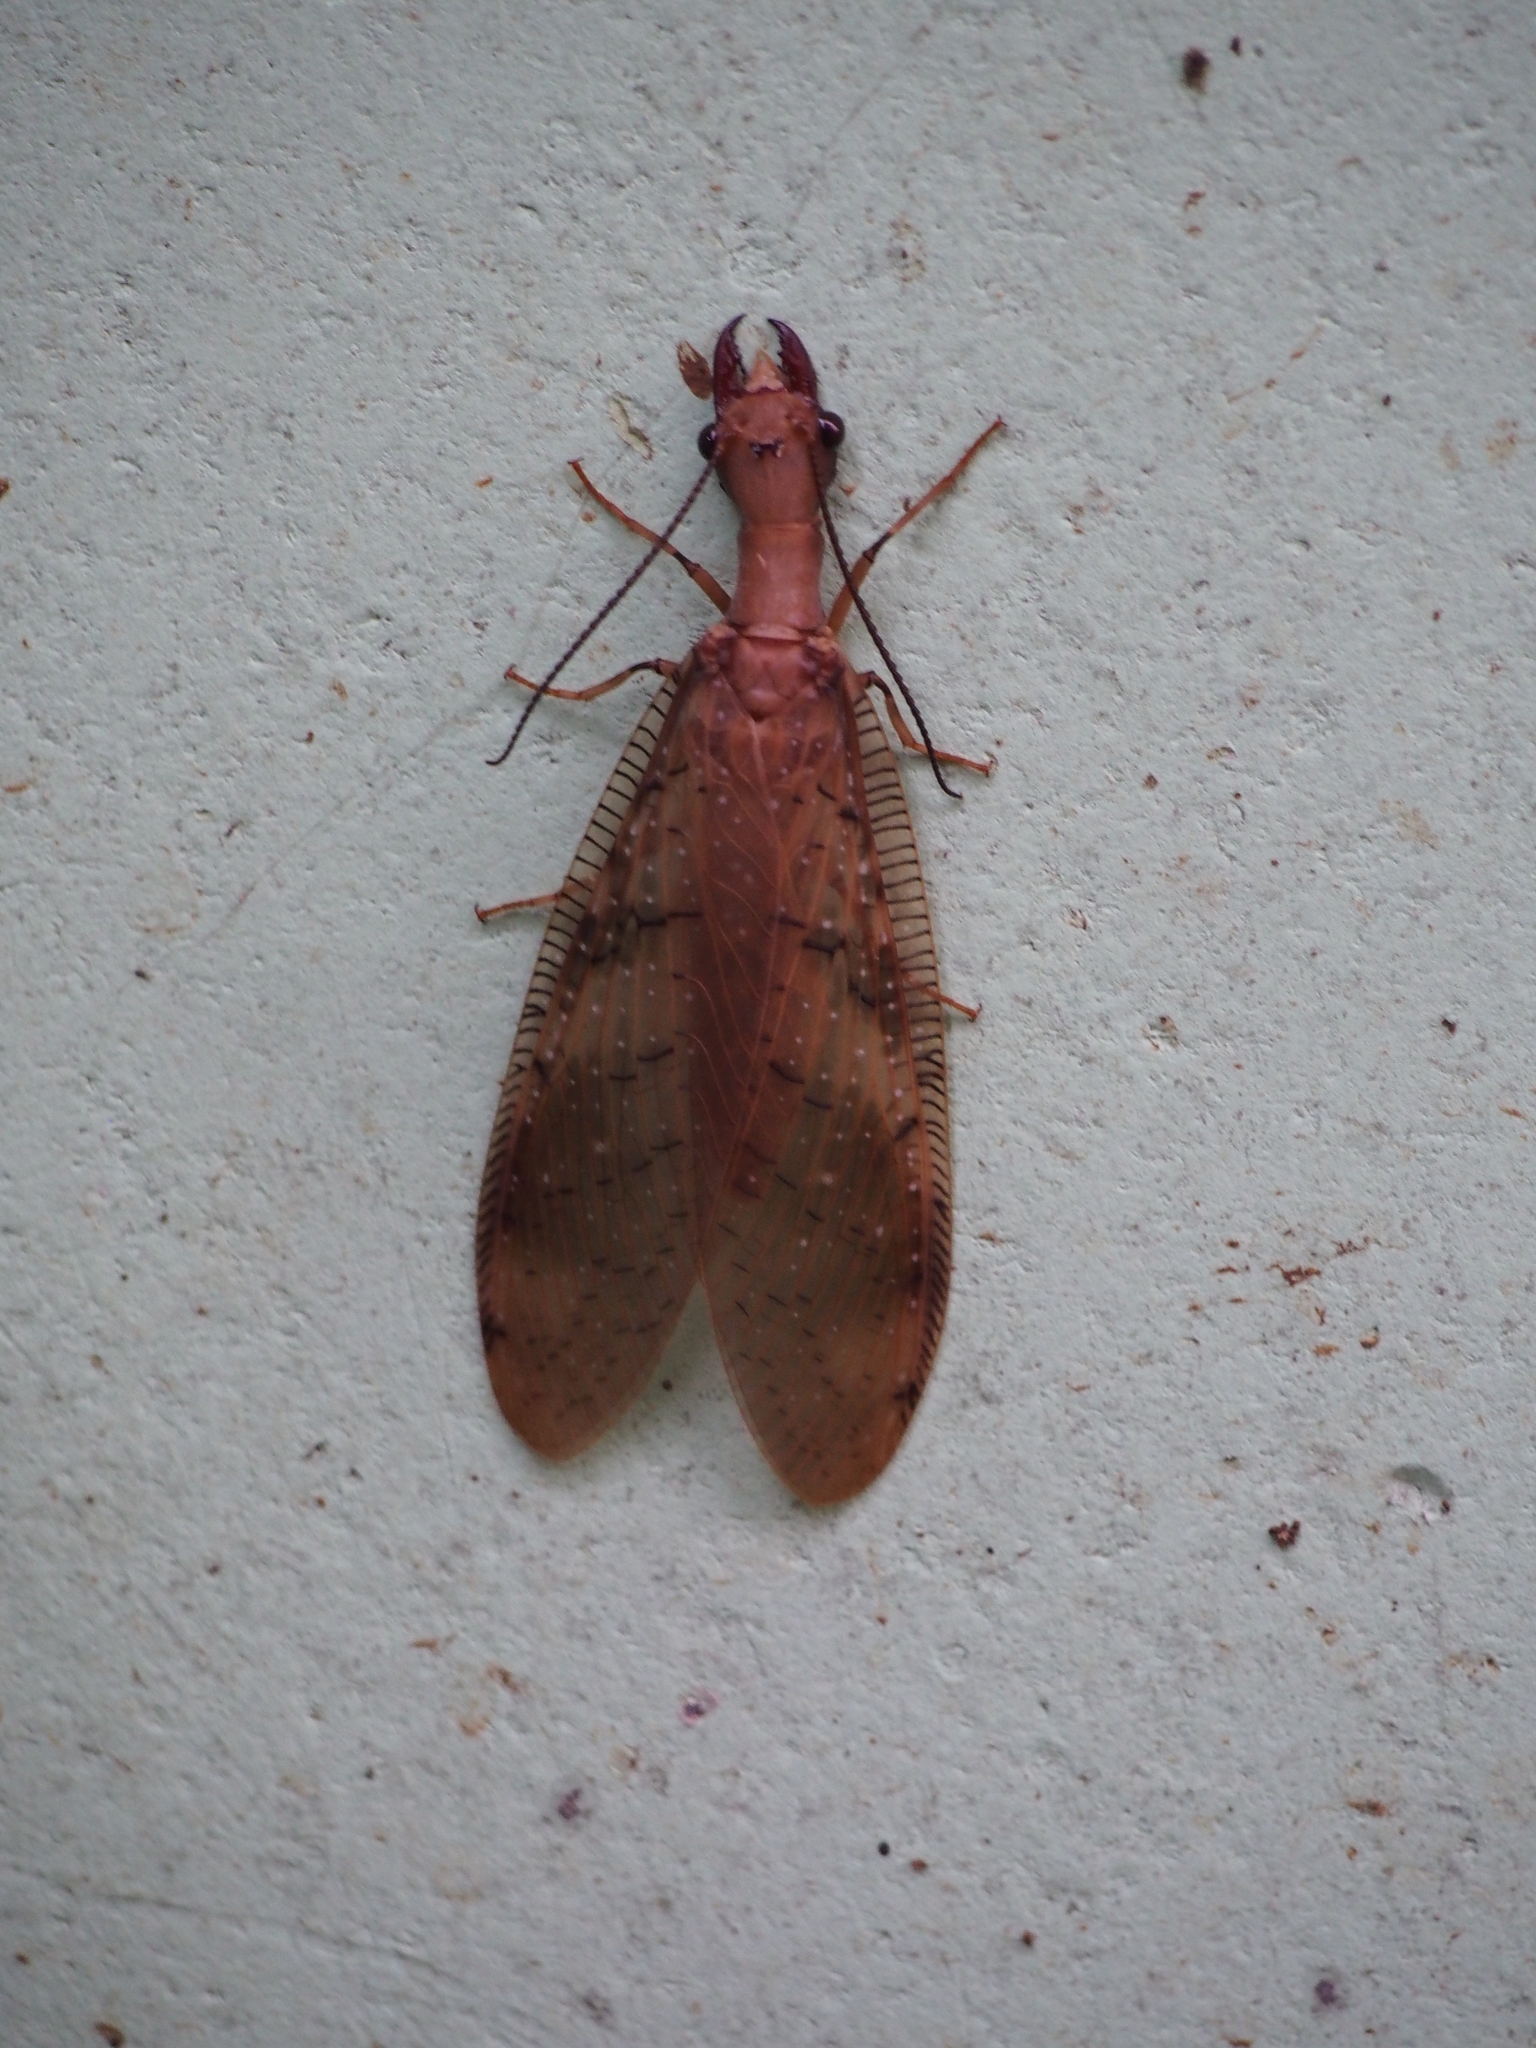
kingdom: Animalia
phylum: Arthropoda
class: Insecta
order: Megaloptera
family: Corydalidae
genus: Corydalus
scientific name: Corydalus flavicornis
